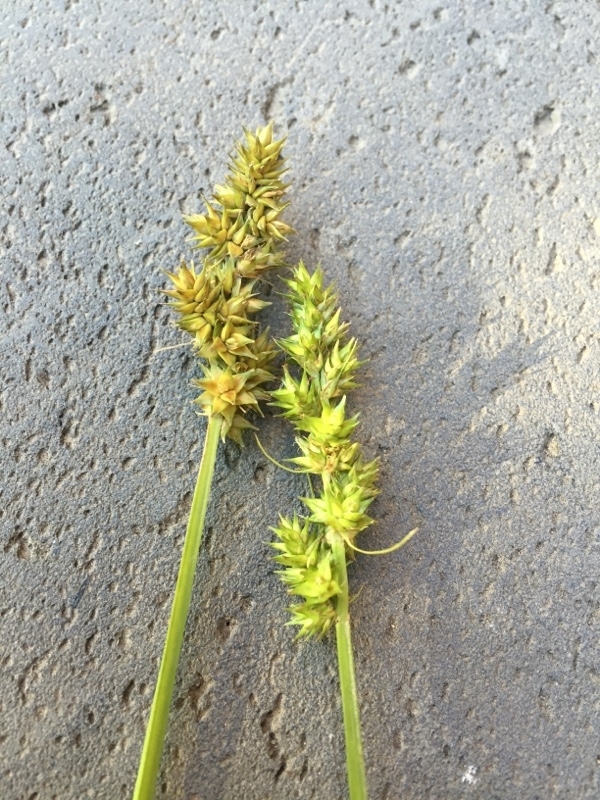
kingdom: Plantae
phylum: Tracheophyta
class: Liliopsida
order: Poales
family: Cyperaceae
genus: Carex
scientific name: Carex otrubae
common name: False fox-sedge
